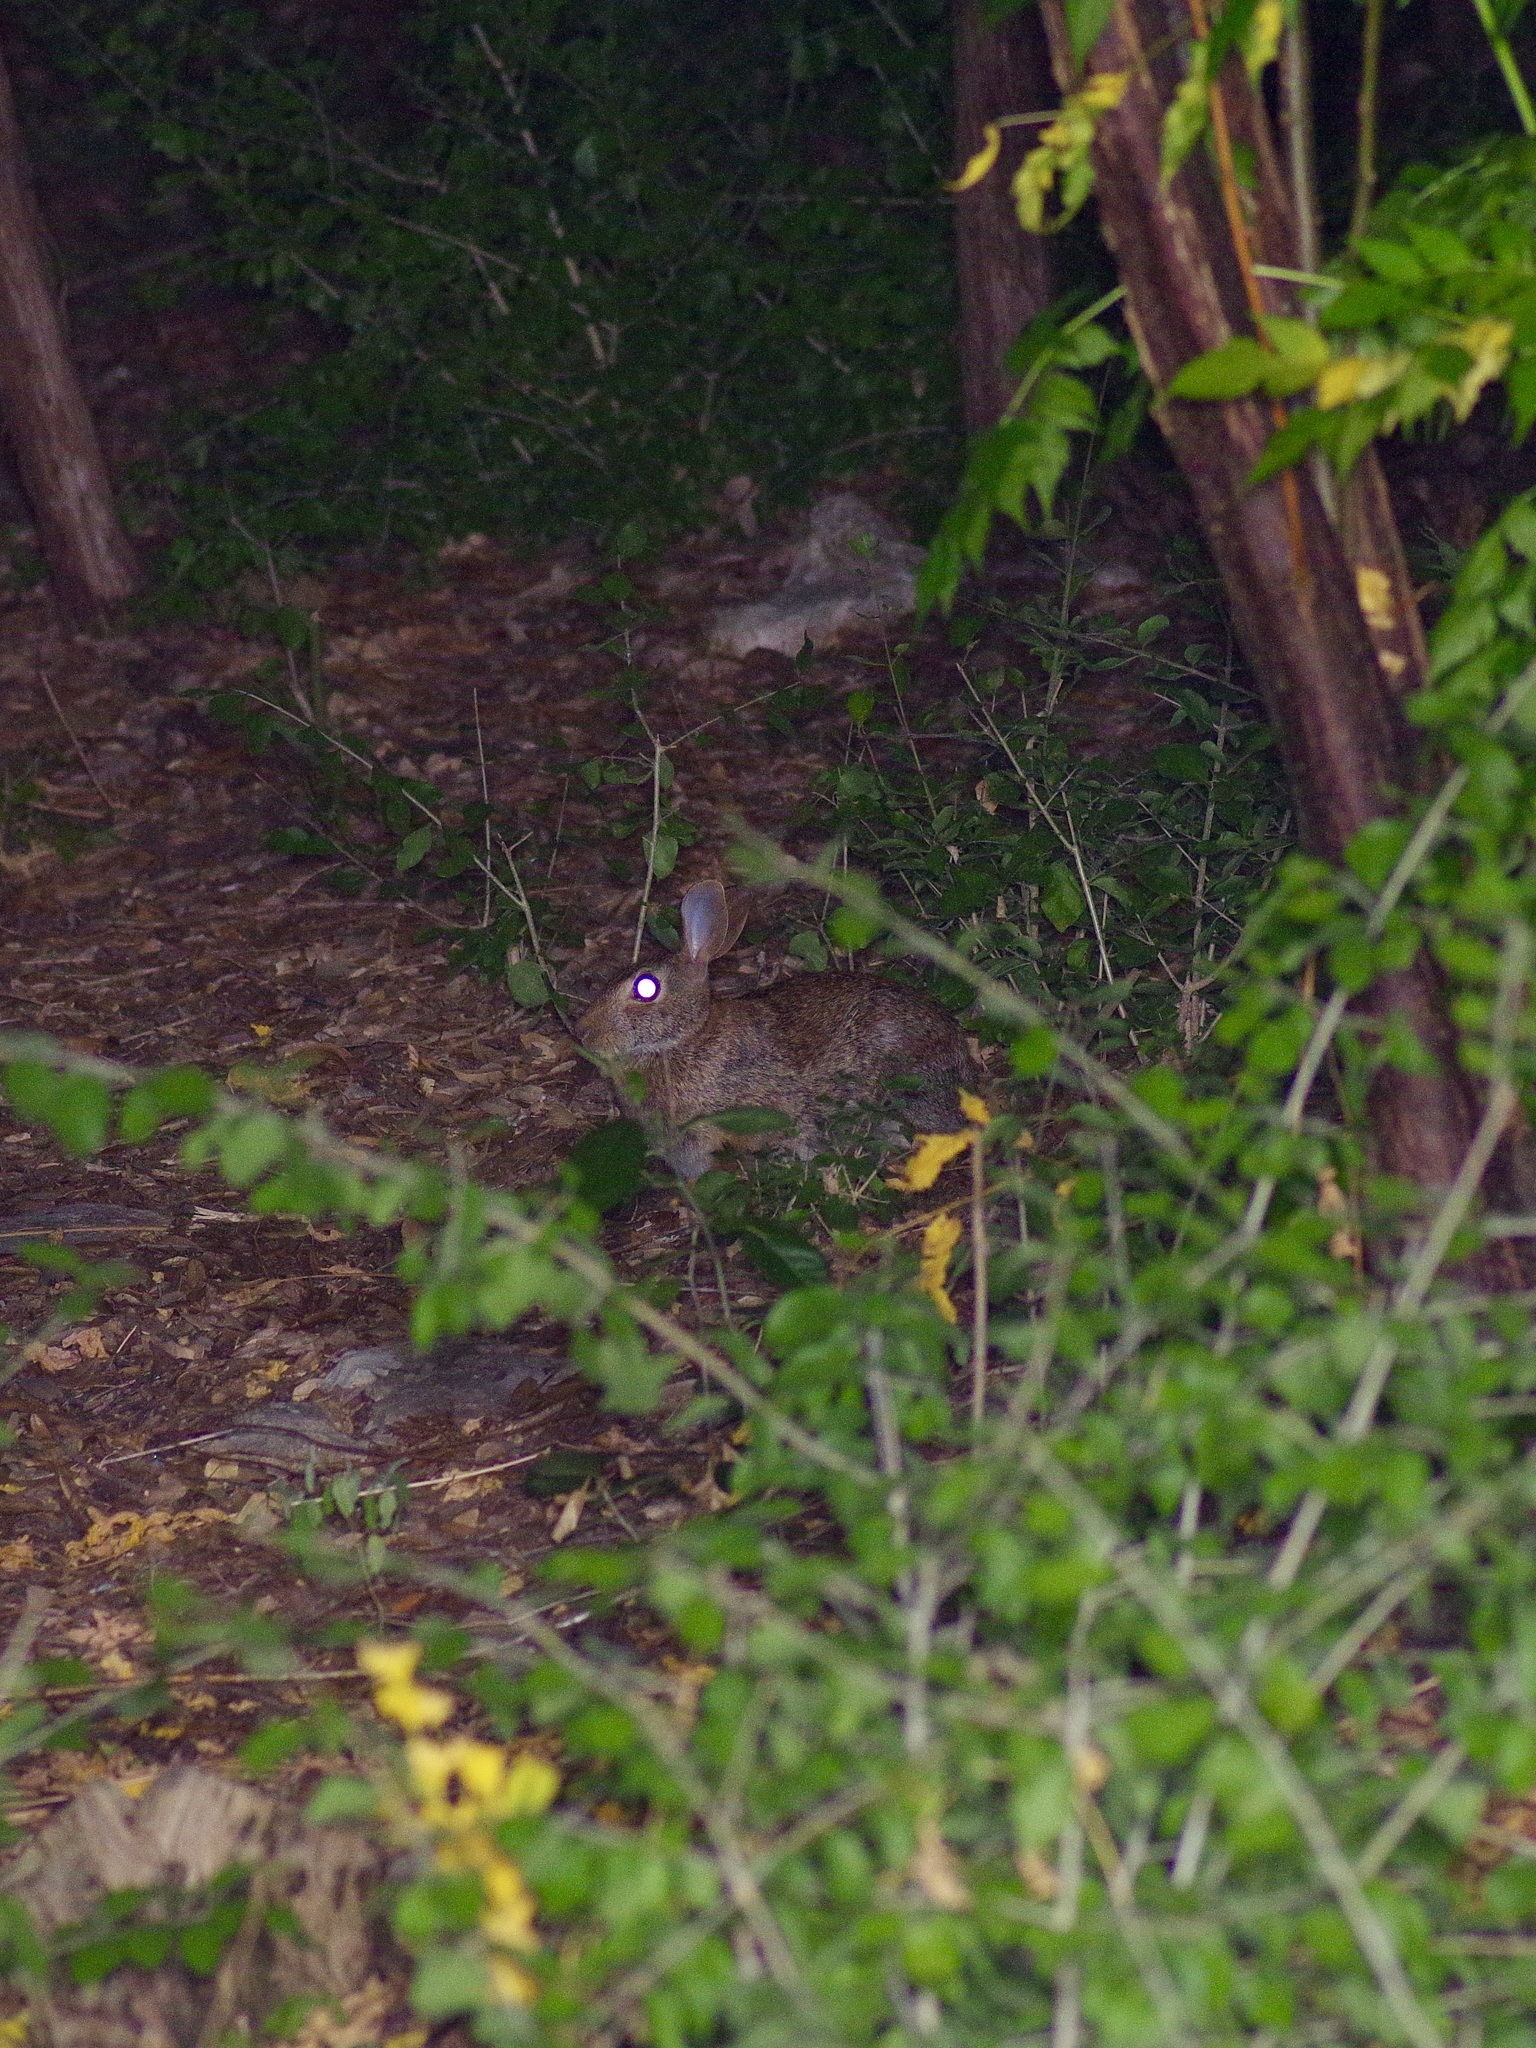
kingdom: Animalia
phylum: Chordata
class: Mammalia
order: Lagomorpha
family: Leporidae
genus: Sylvilagus
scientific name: Sylvilagus floridanus
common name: Eastern cottontail
